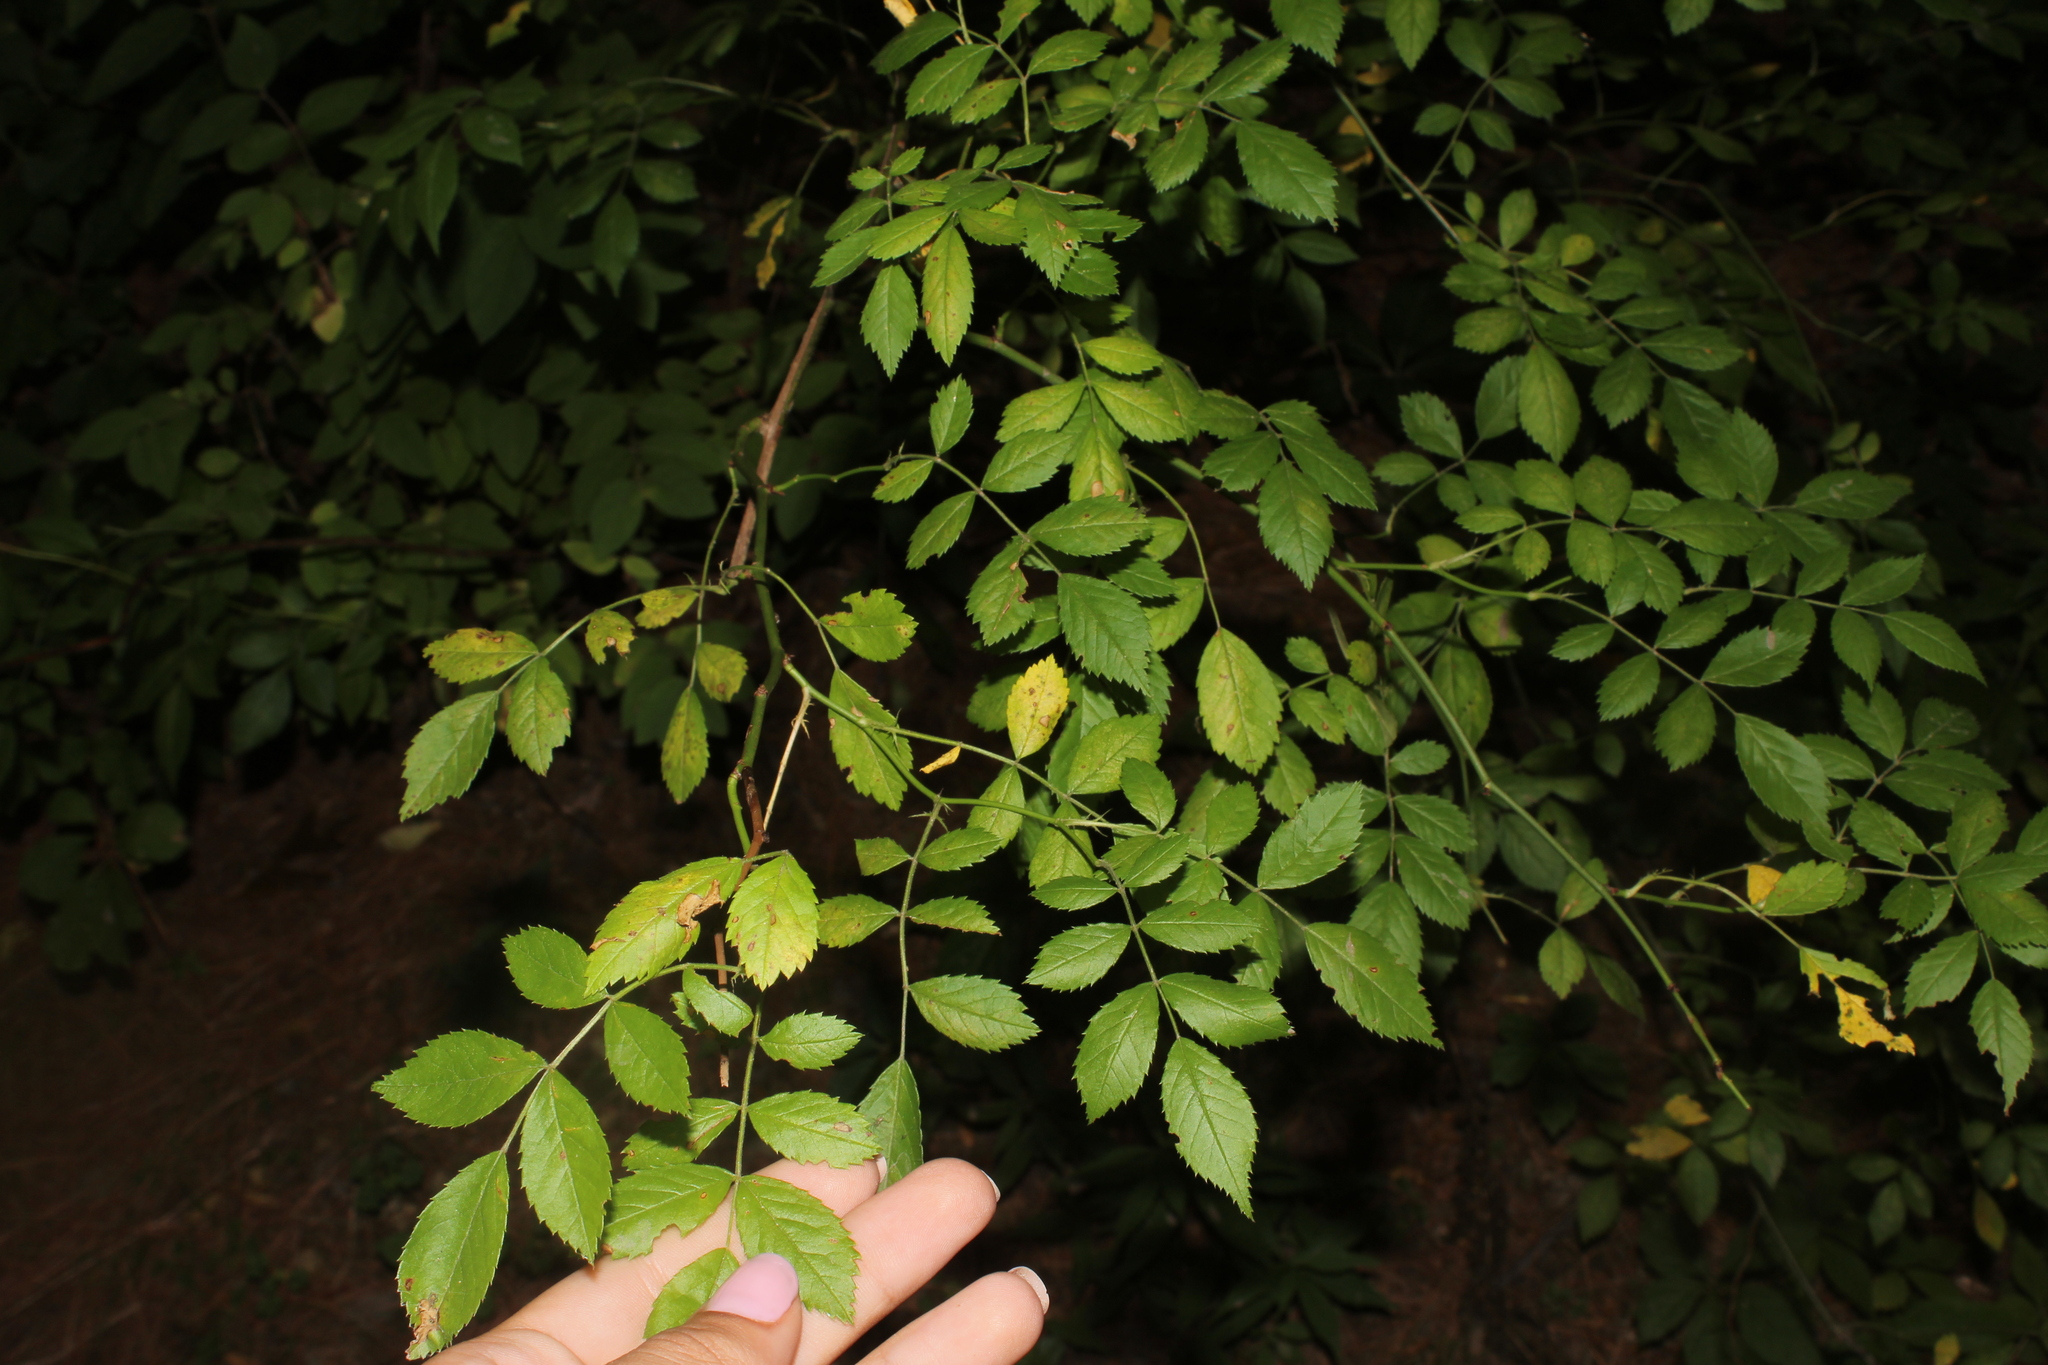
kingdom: Plantae
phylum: Tracheophyta
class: Magnoliopsida
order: Rosales
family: Rosaceae
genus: Rosa
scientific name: Rosa multiflora
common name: Multiflora rose
